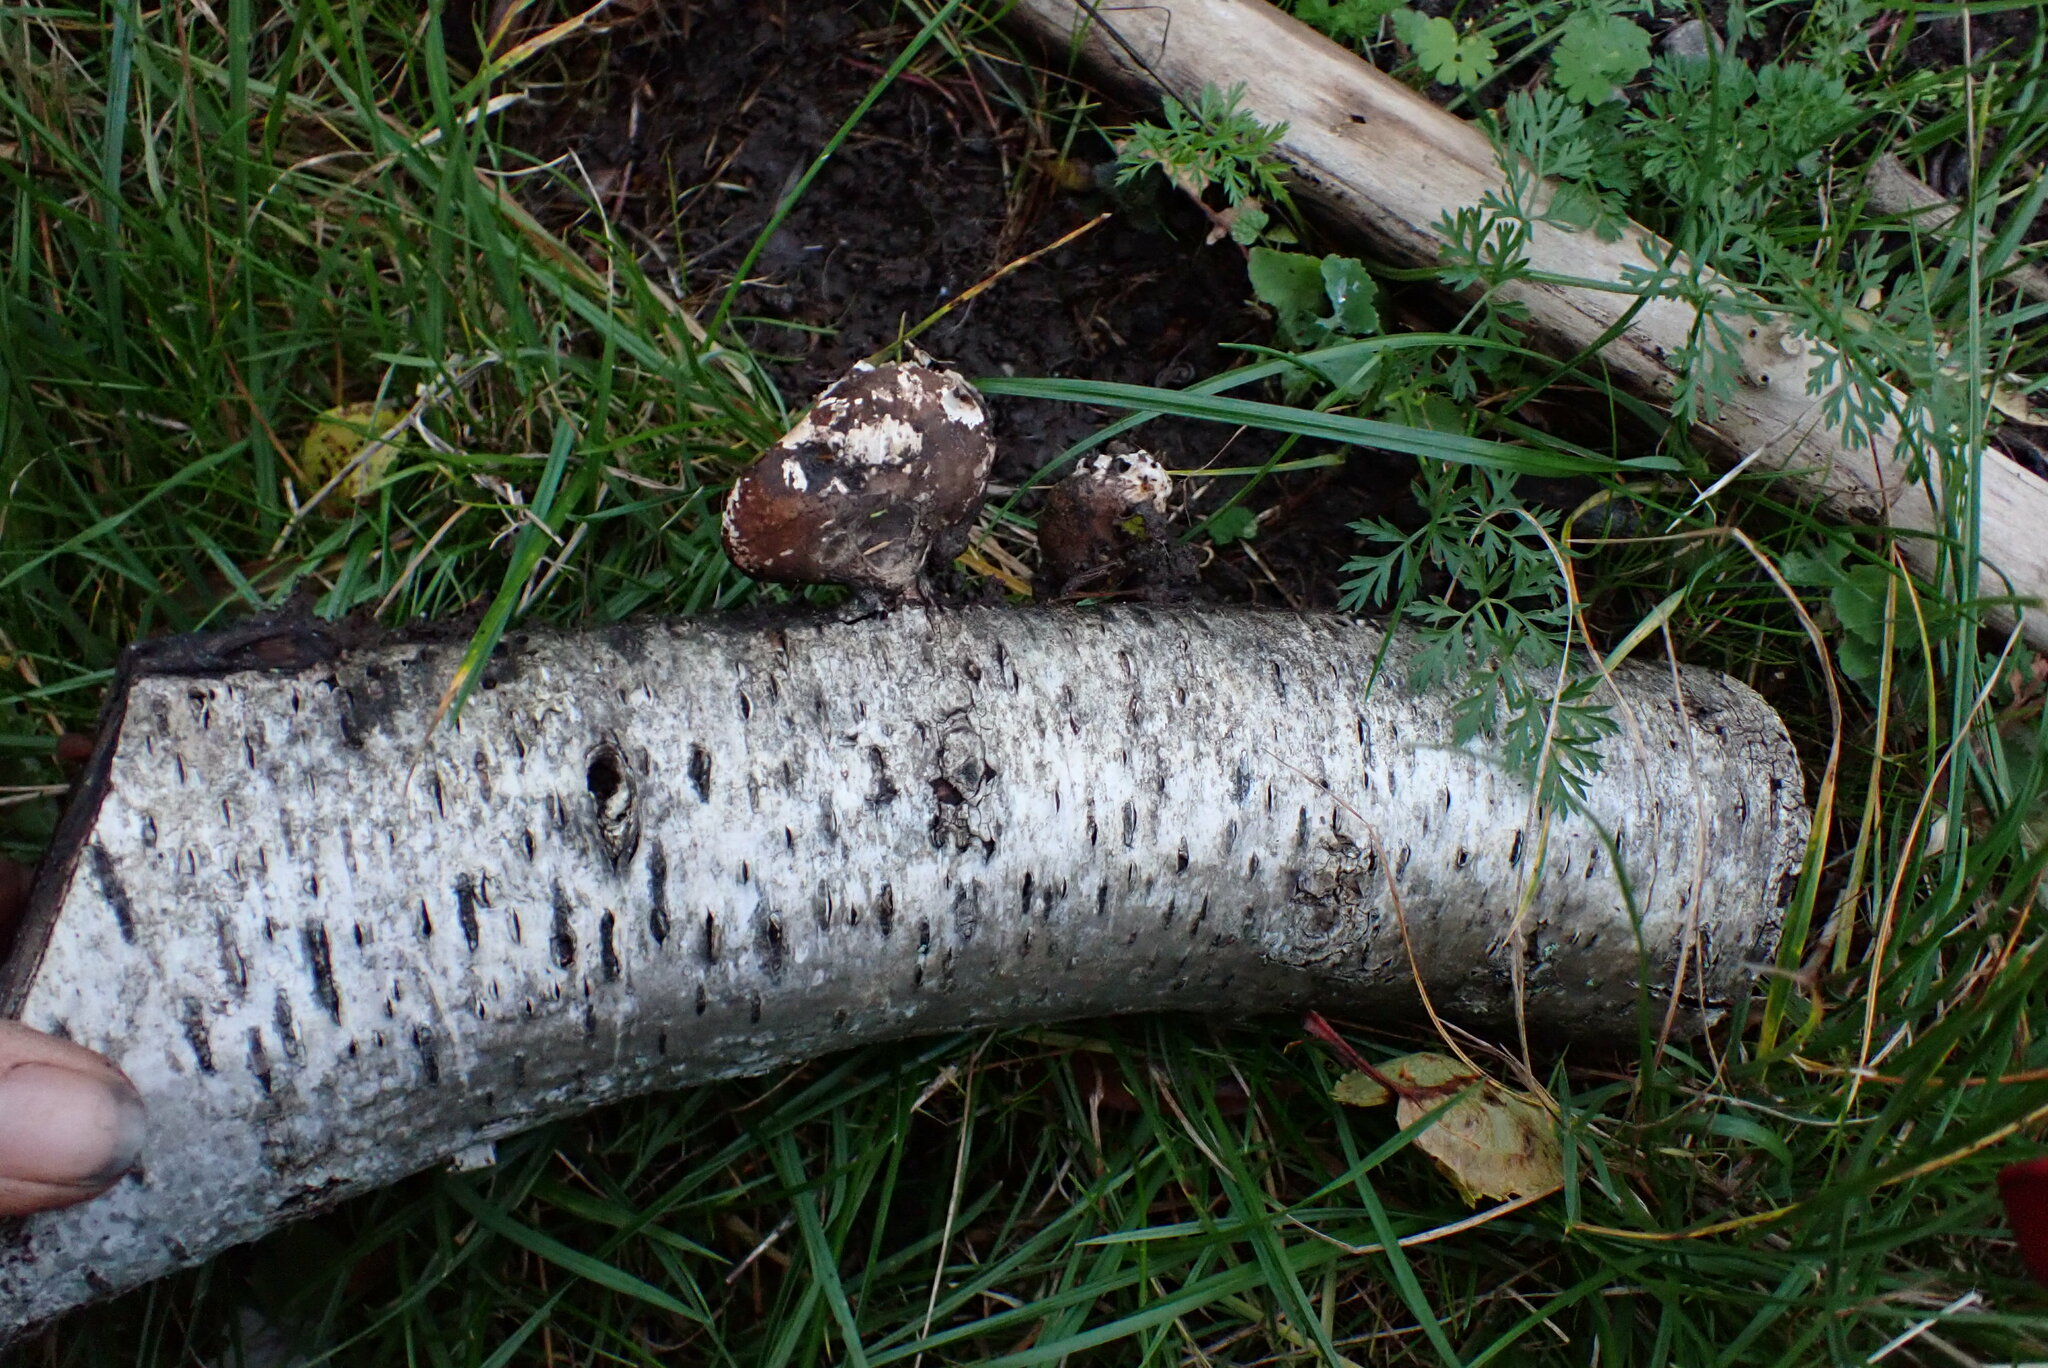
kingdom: Fungi
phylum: Basidiomycota
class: Agaricomycetes
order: Polyporales
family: Fomitopsidaceae
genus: Fomitopsis
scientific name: Fomitopsis betulina
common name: Birch polypore
